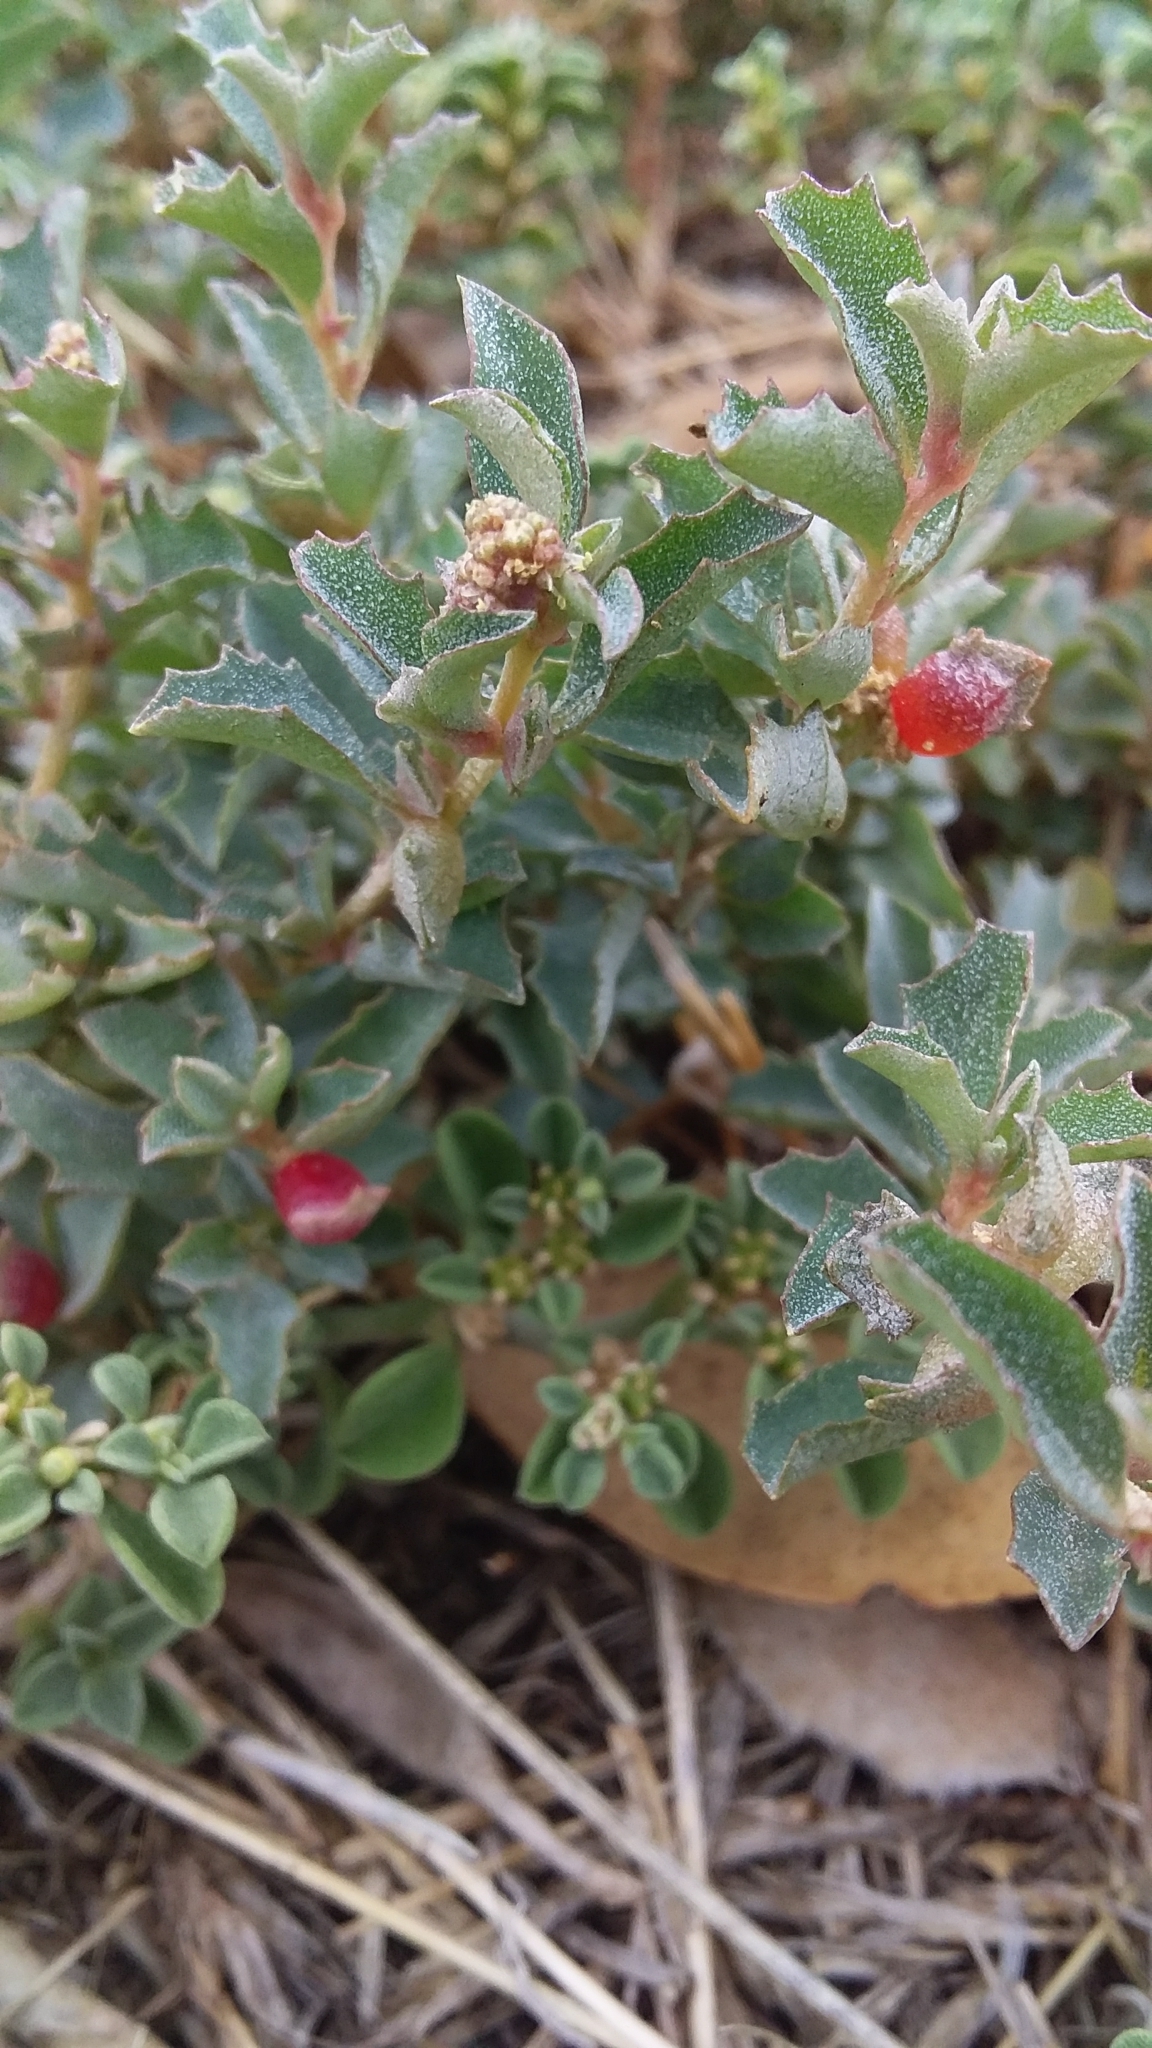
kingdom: Plantae
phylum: Tracheophyta
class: Magnoliopsida
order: Caryophyllales
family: Amaranthaceae
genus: Atriplex
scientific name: Atriplex semibaccata
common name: Australian saltbush
